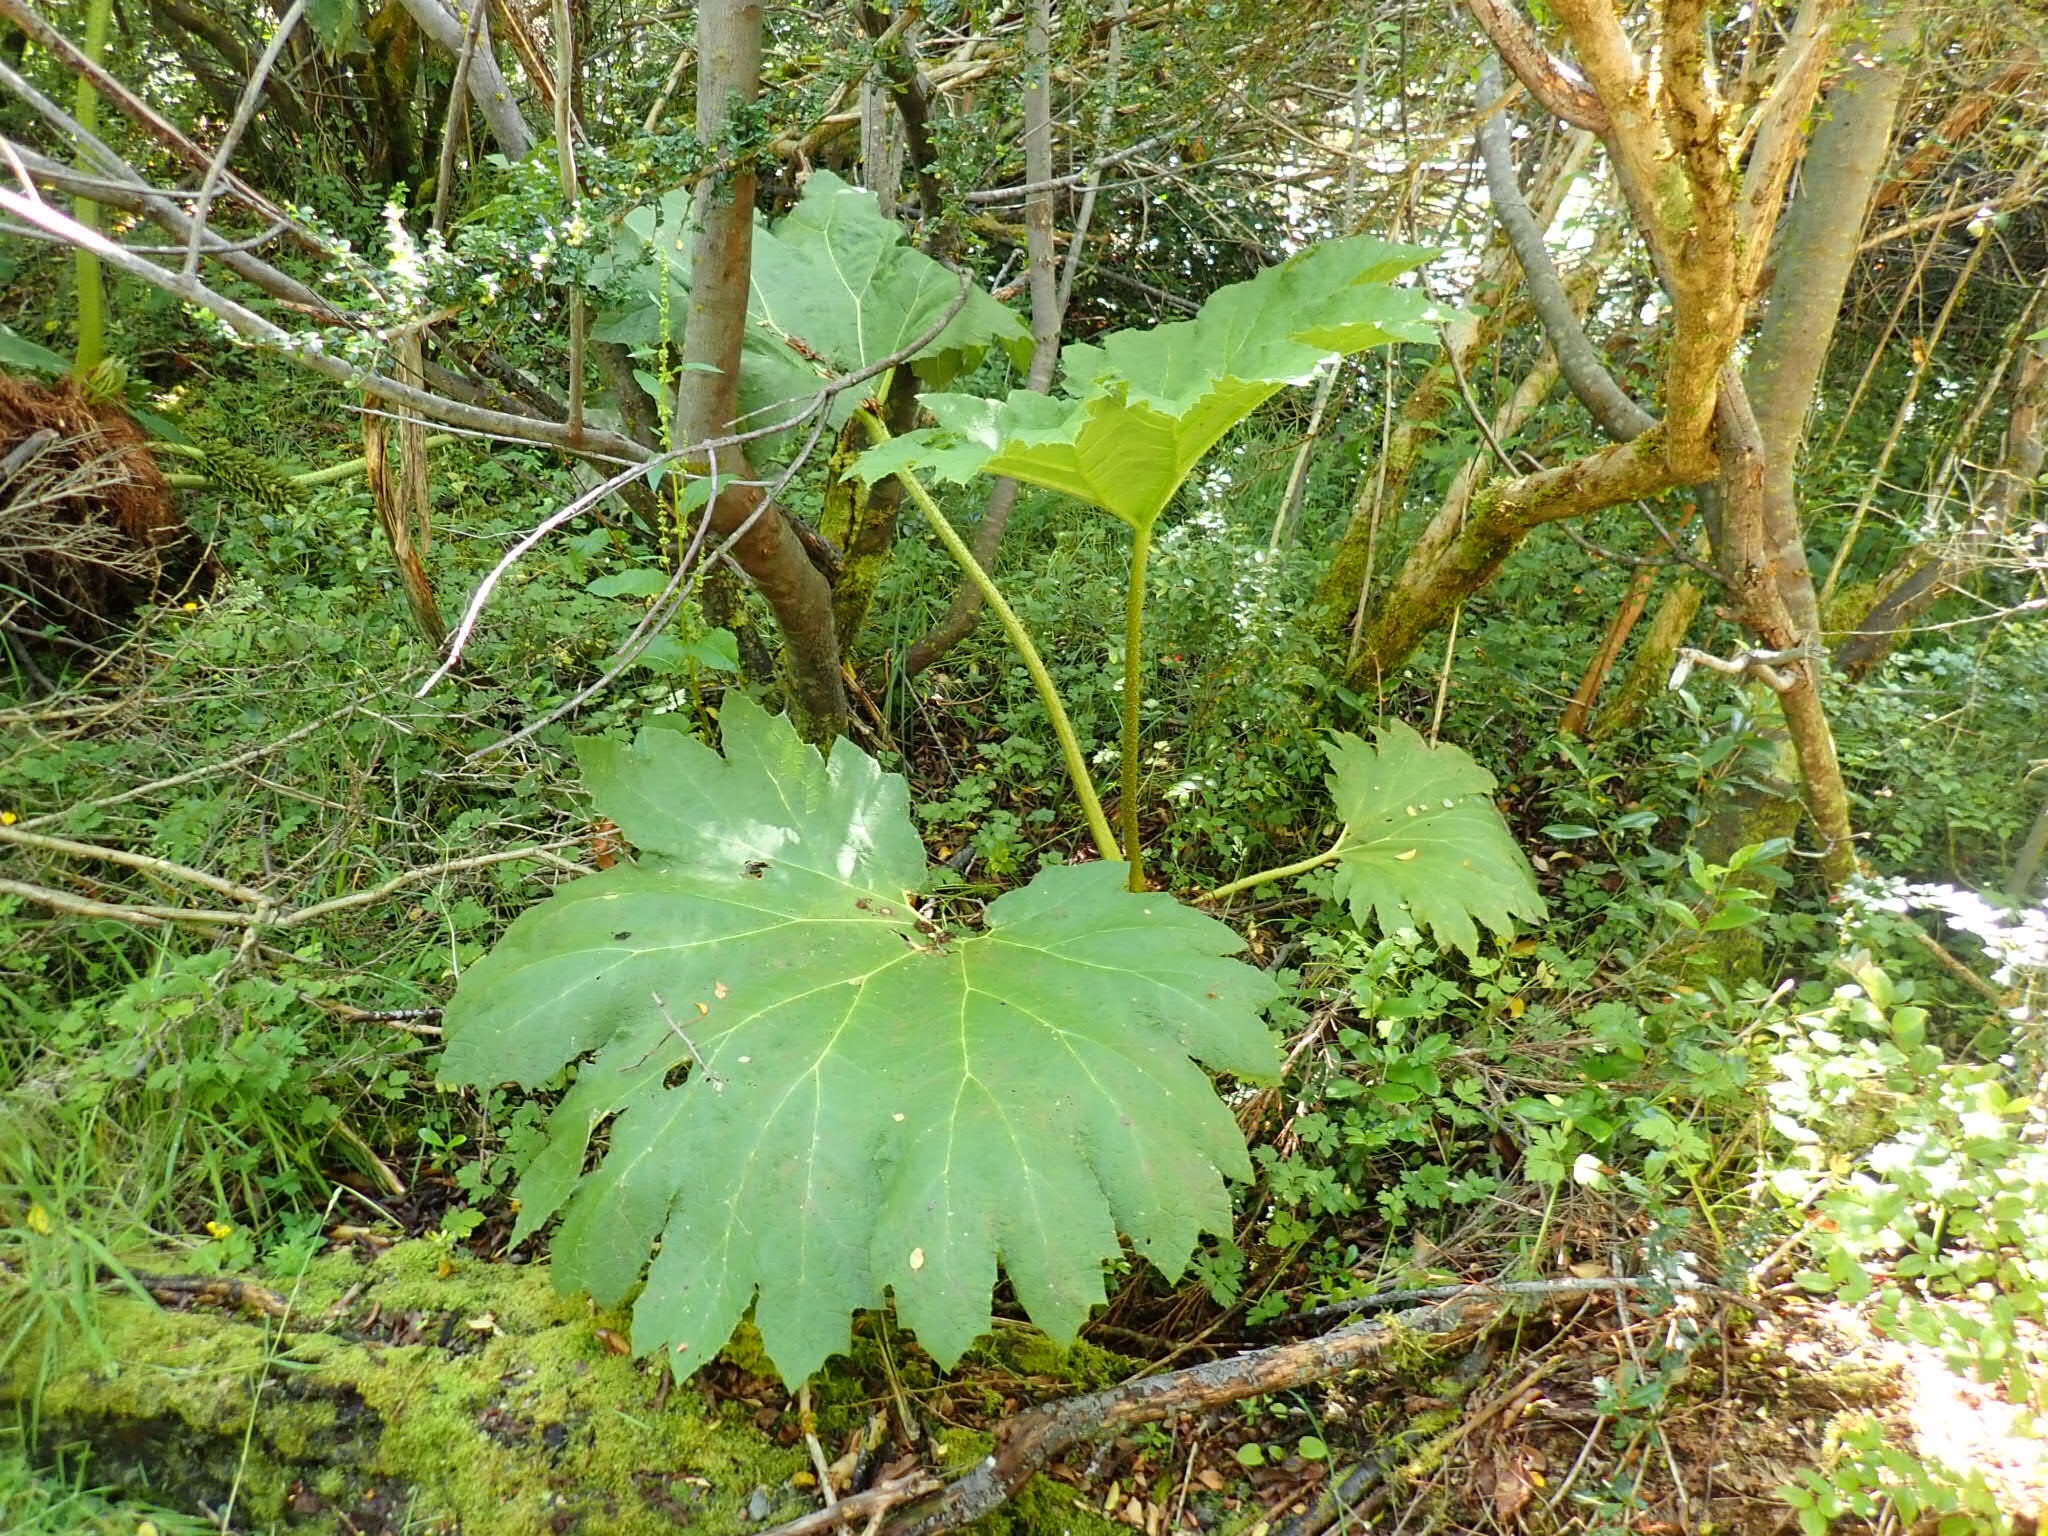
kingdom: Plantae
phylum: Tracheophyta
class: Magnoliopsida
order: Gunnerales
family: Gunneraceae
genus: Gunnera
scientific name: Gunnera tinctoria
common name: Giant-rhubarb
